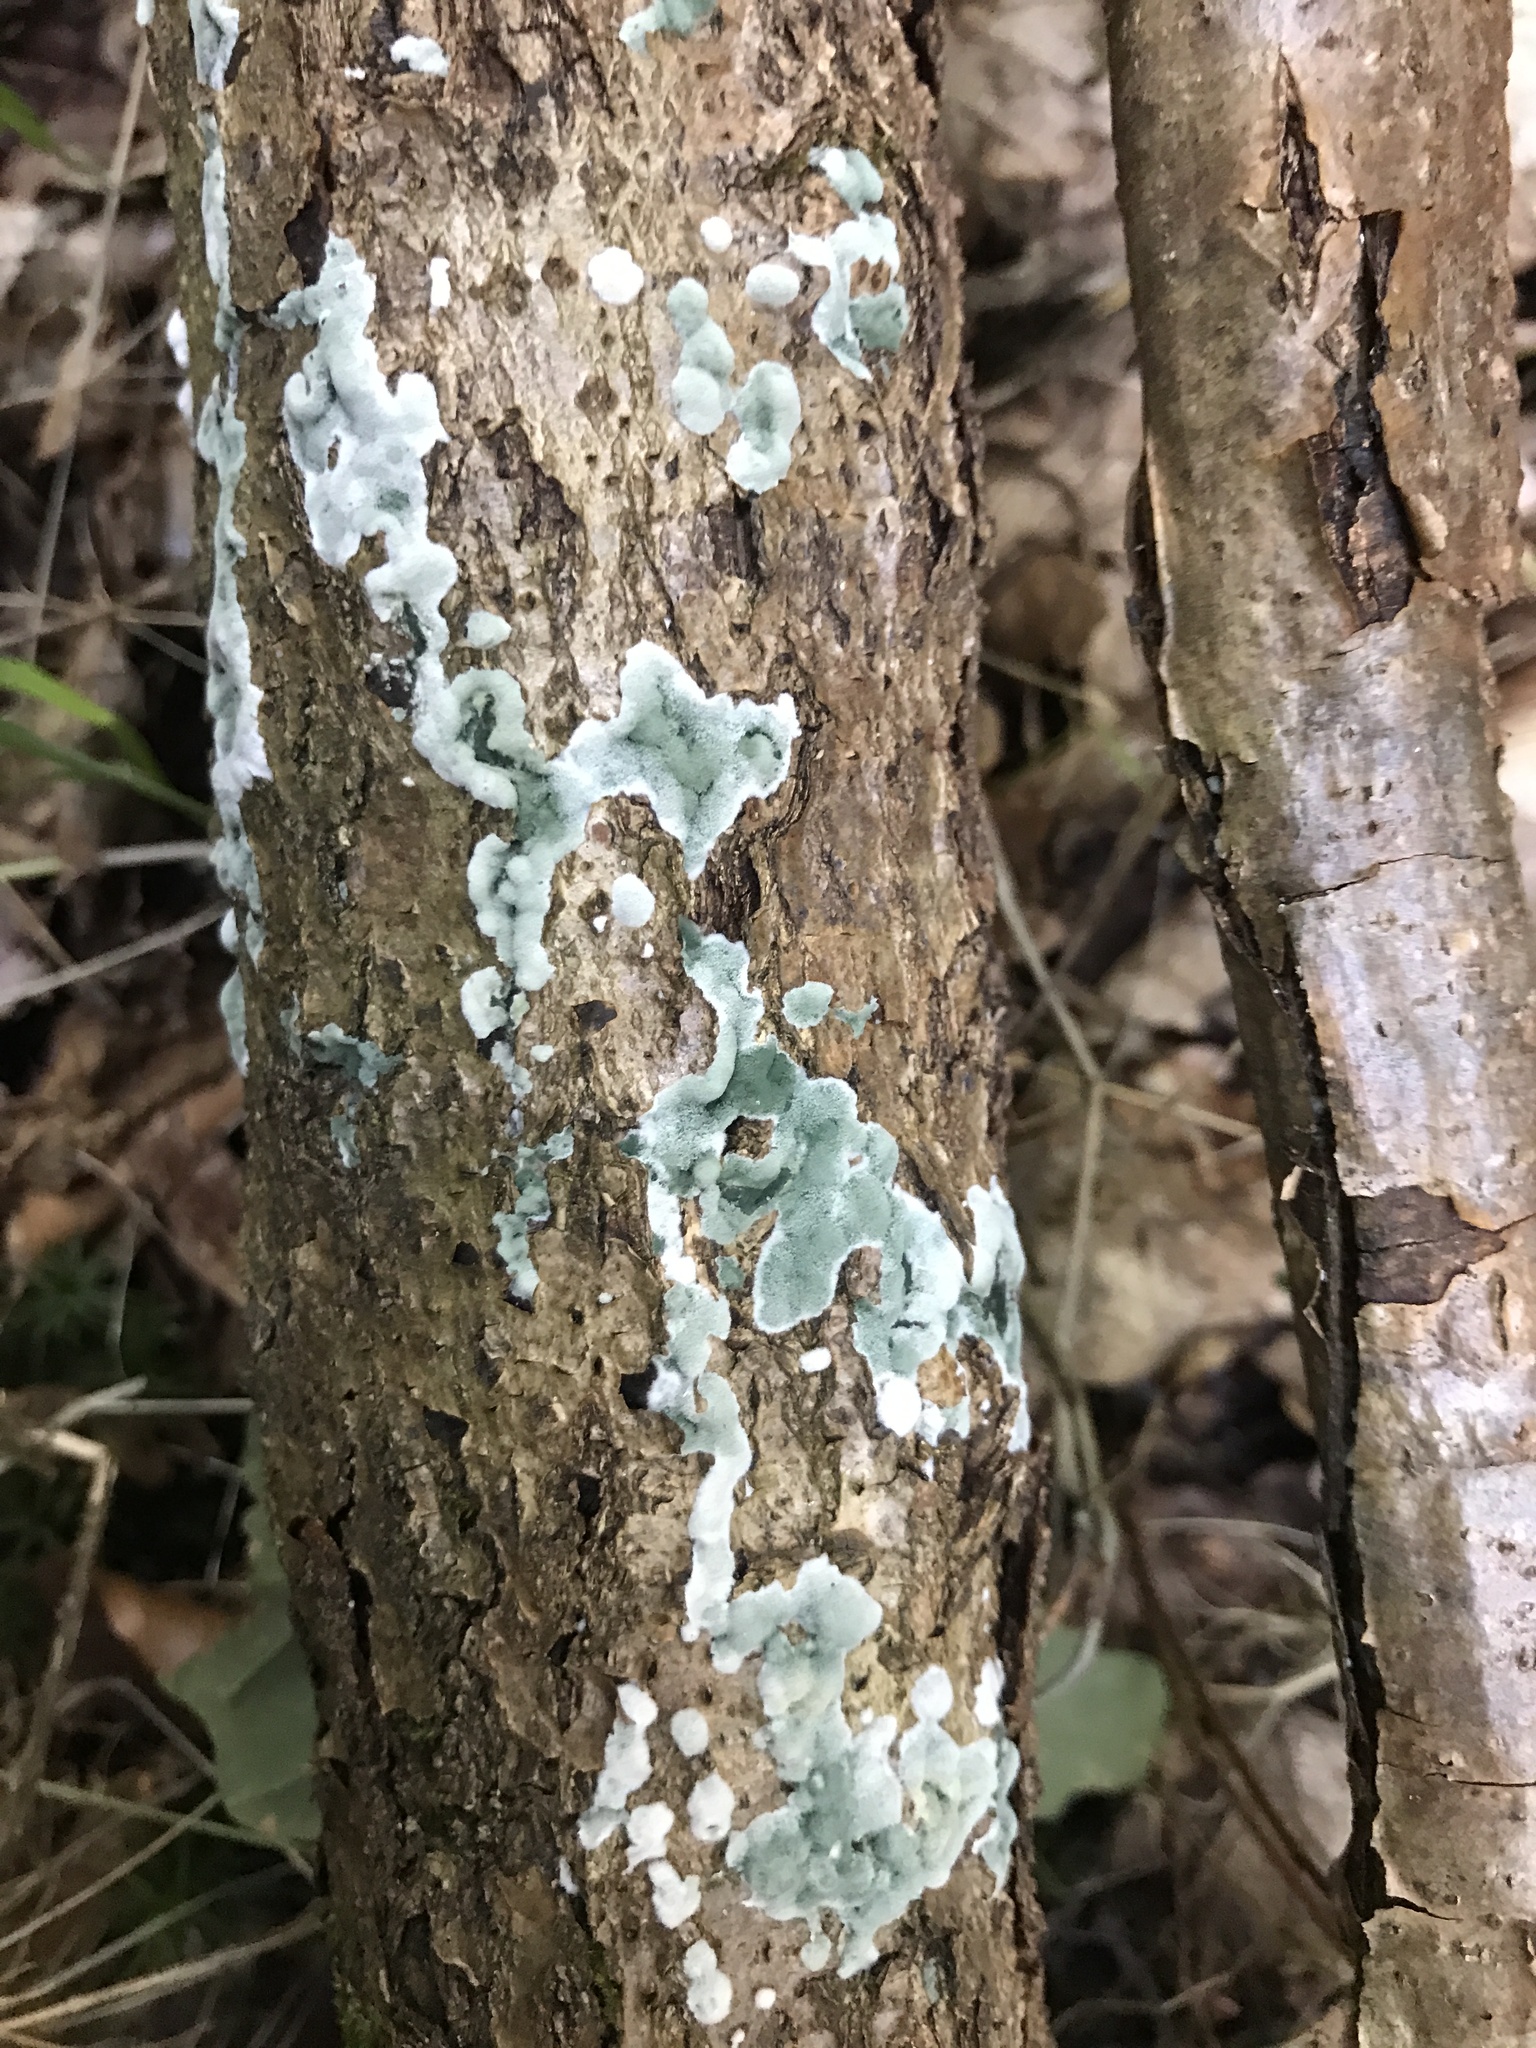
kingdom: Fungi
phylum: Ascomycota
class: Sordariomycetes
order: Hypocreales
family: Hypocreaceae
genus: Trichoderma
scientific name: Trichoderma viride
